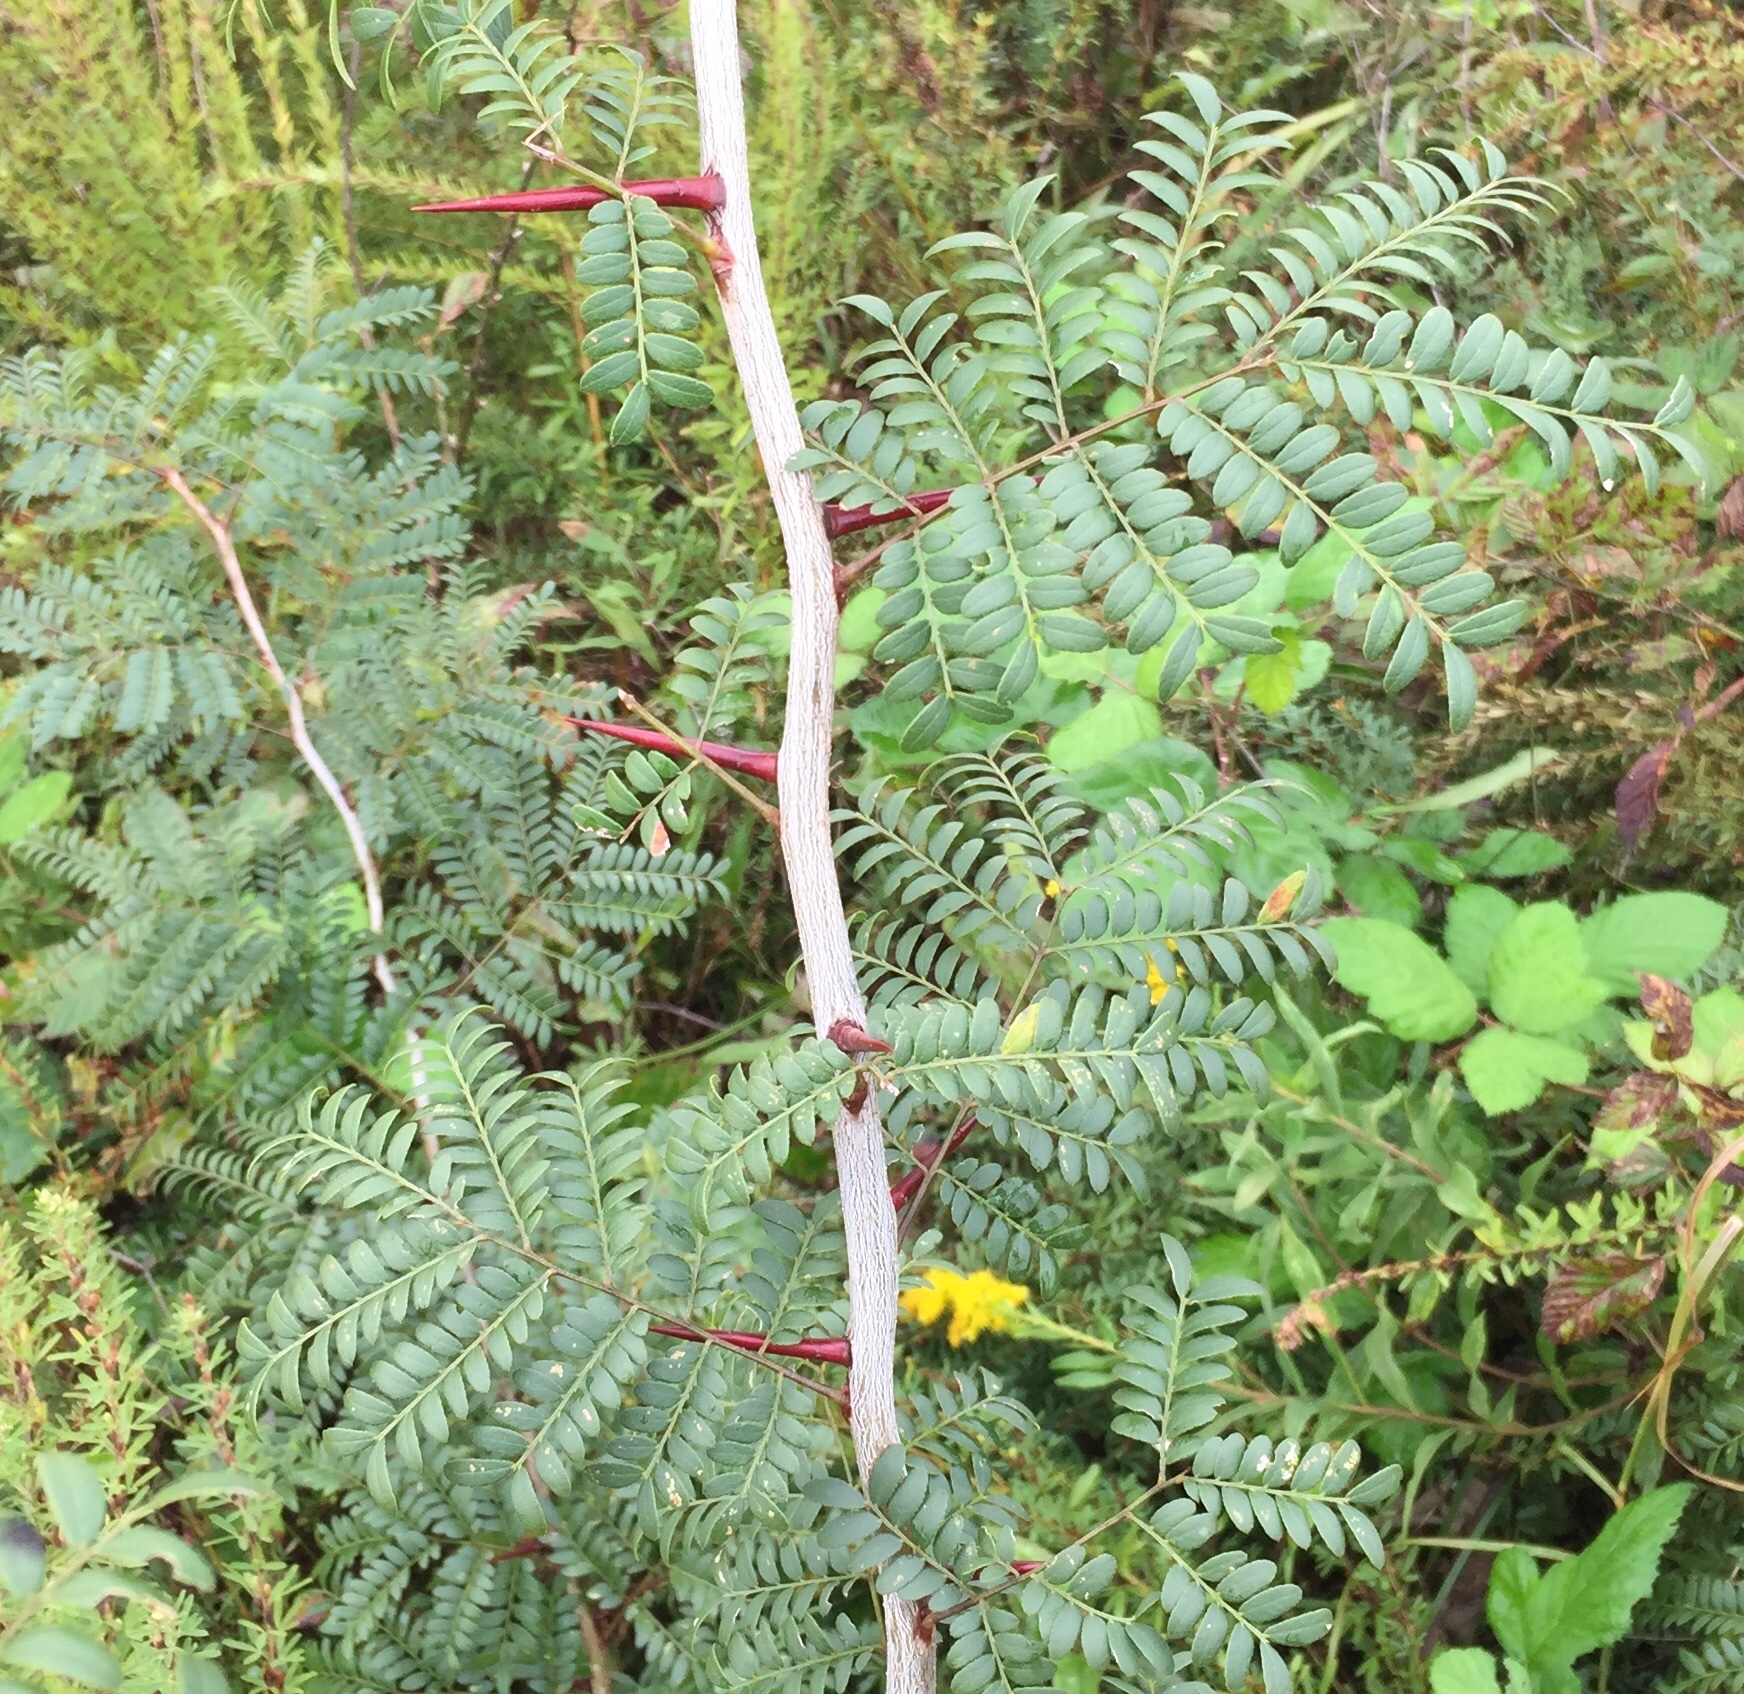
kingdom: Plantae
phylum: Tracheophyta
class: Magnoliopsida
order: Fabales
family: Fabaceae
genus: Gleditsia
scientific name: Gleditsia triacanthos
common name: Common honeylocust
